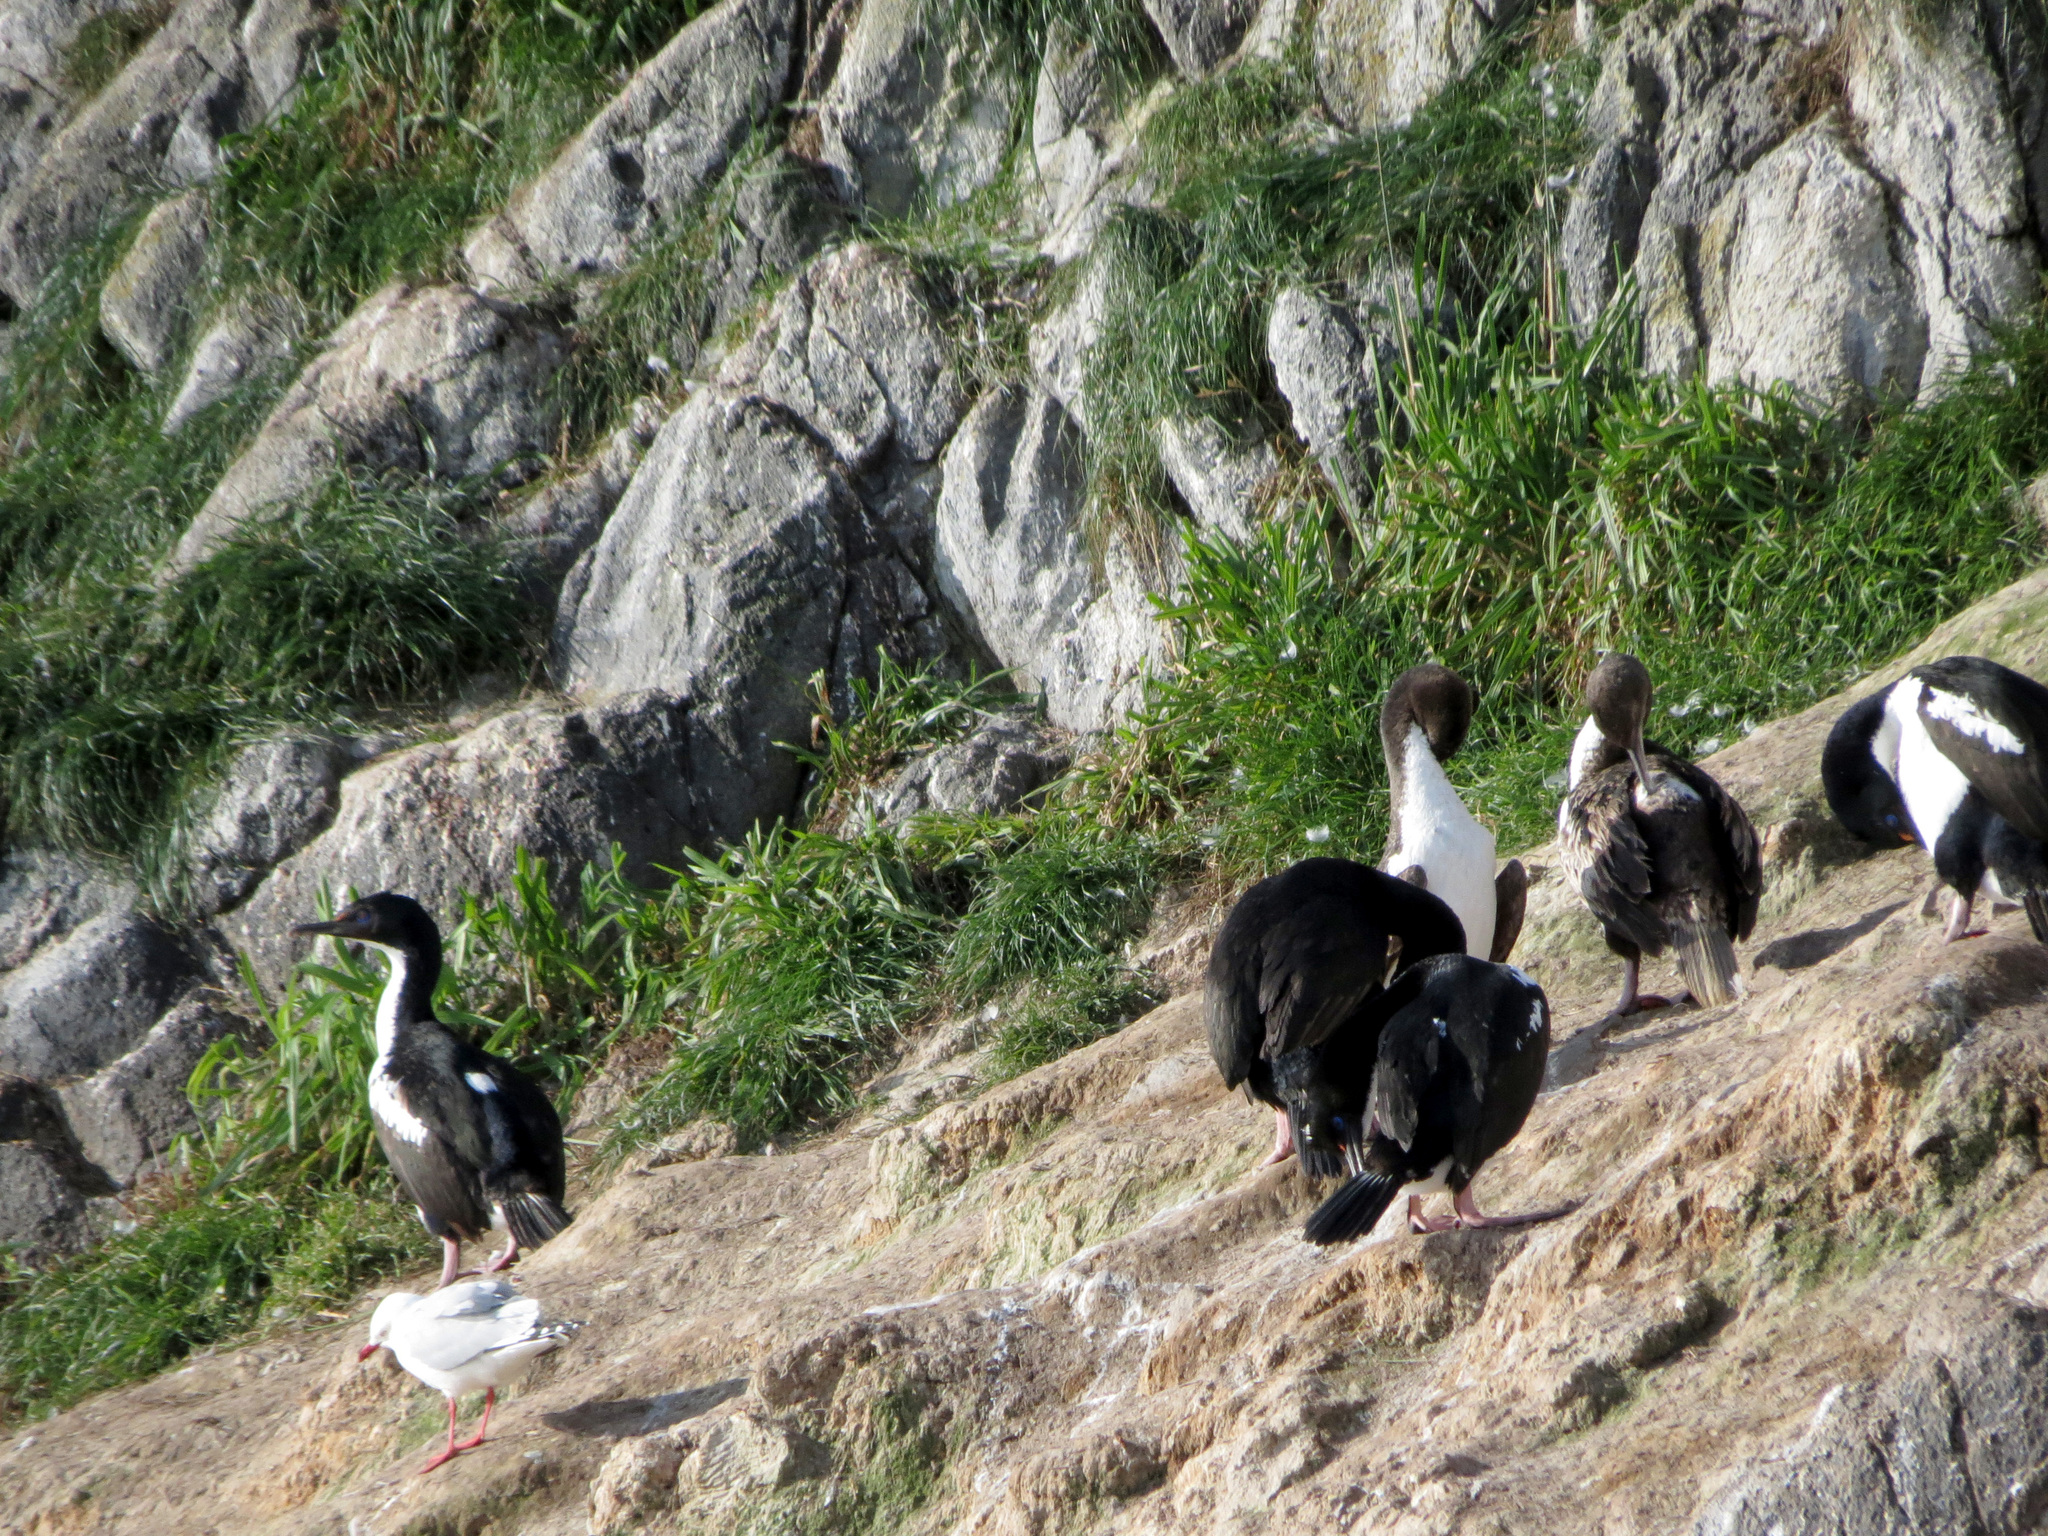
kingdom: Animalia
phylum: Chordata
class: Aves
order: Suliformes
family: Phalacrocoracidae
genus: Leucocarbo
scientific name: Leucocarbo chalconotus
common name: Stewart shag
